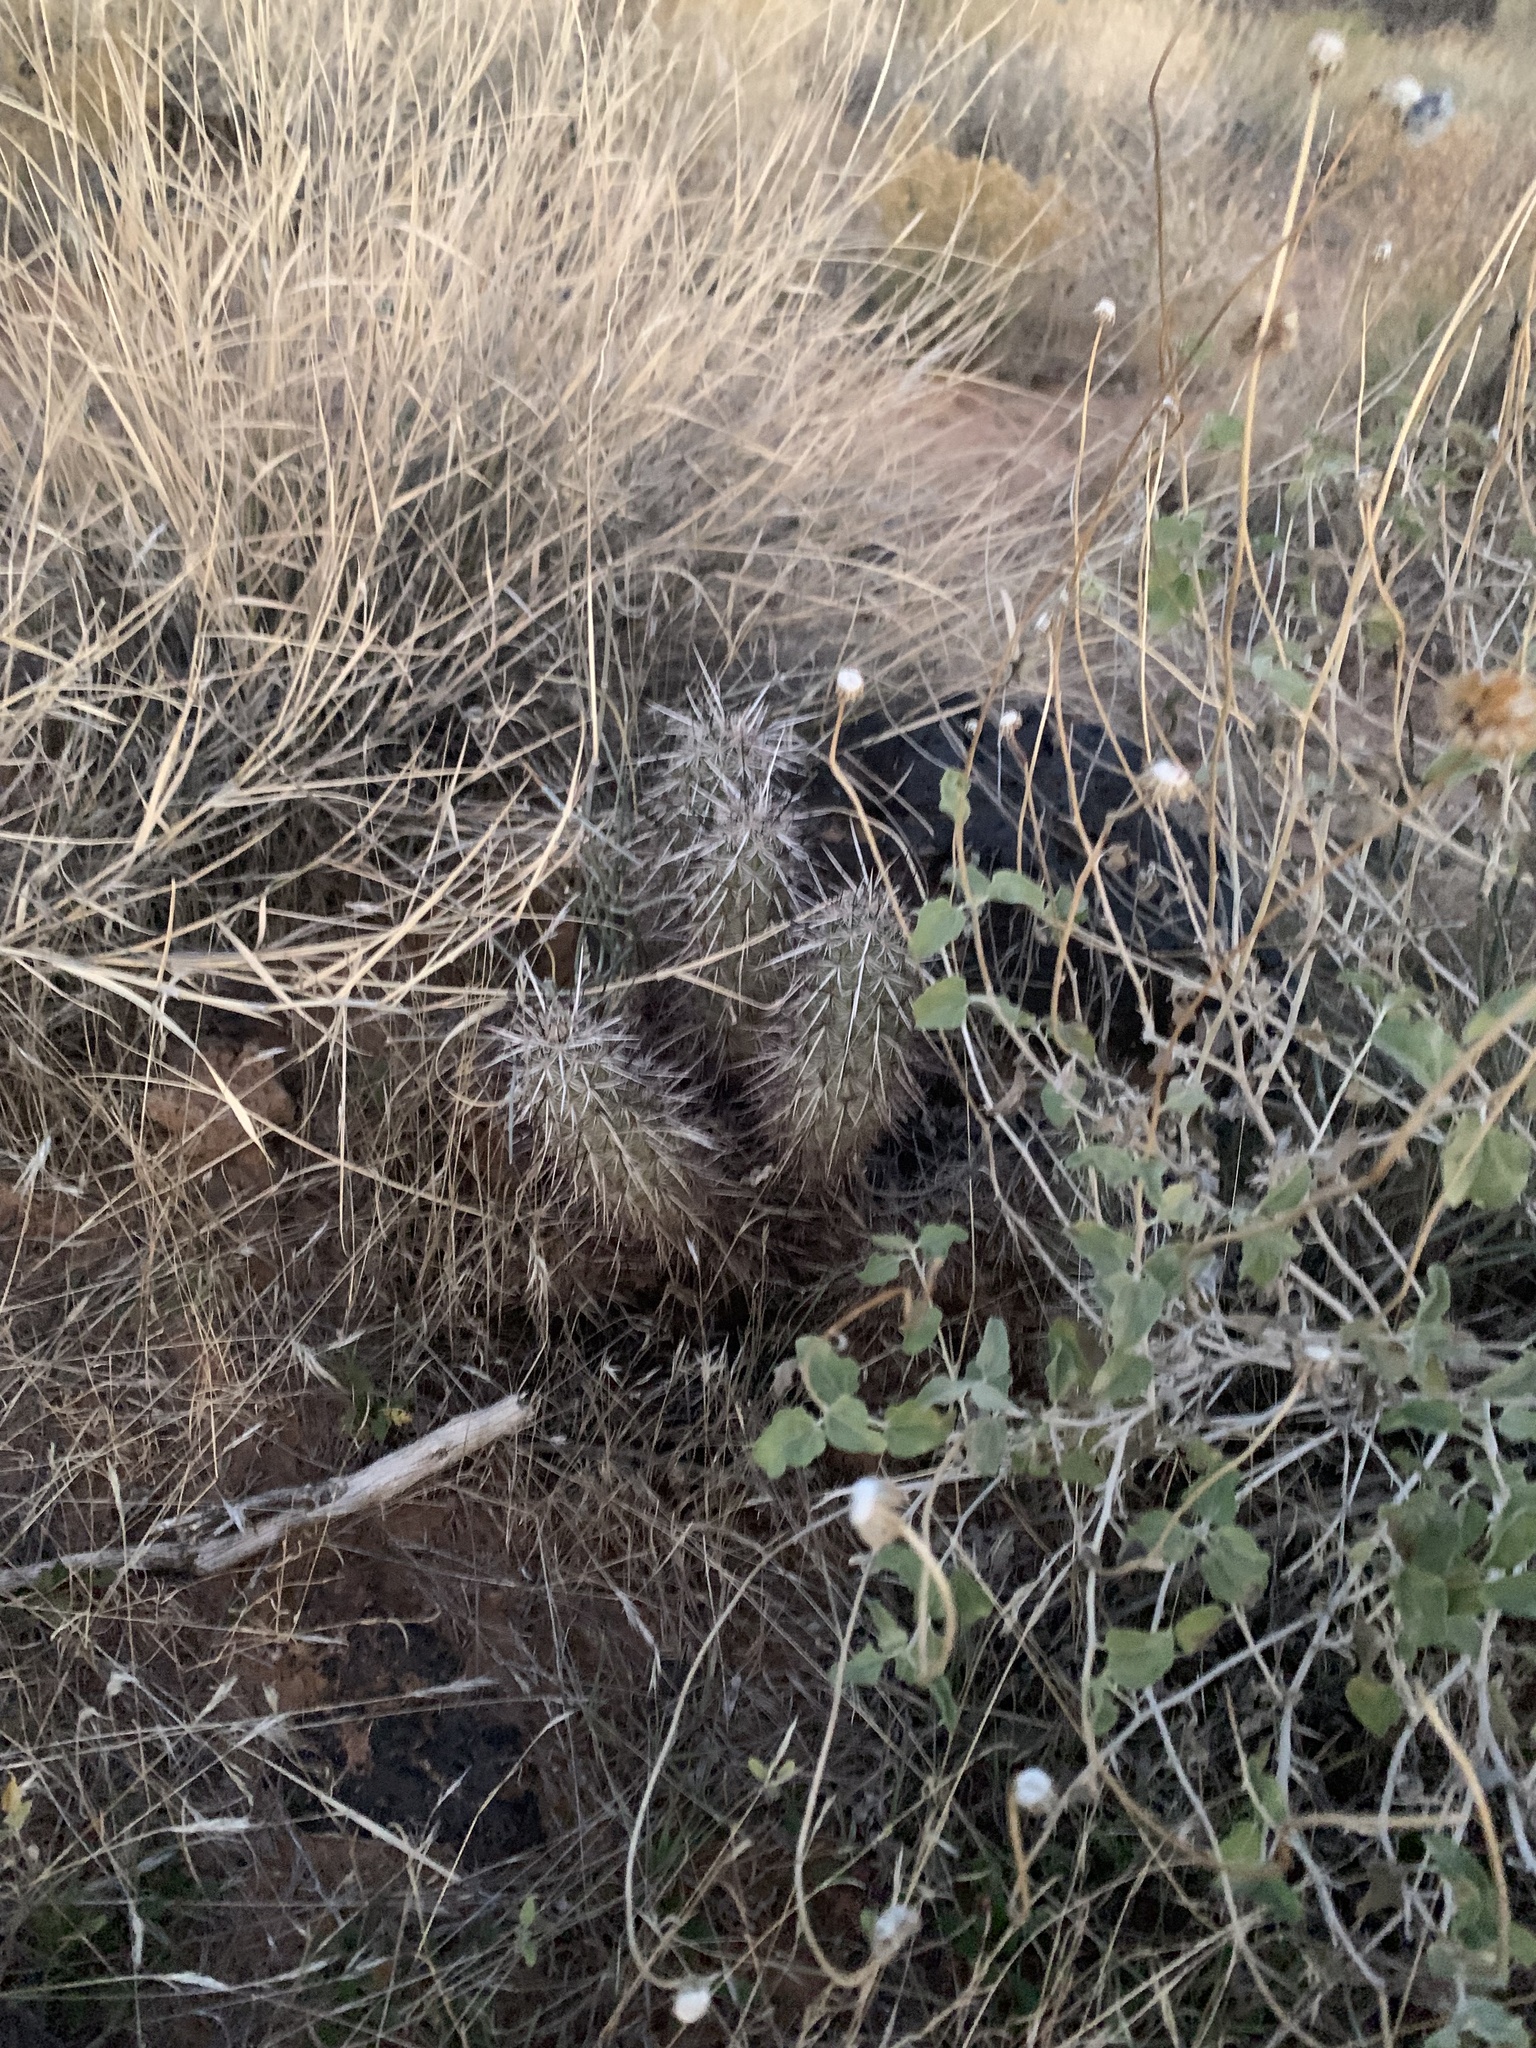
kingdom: Plantae
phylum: Tracheophyta
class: Magnoliopsida
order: Caryophyllales
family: Cactaceae
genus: Echinocereus
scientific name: Echinocereus relictus
